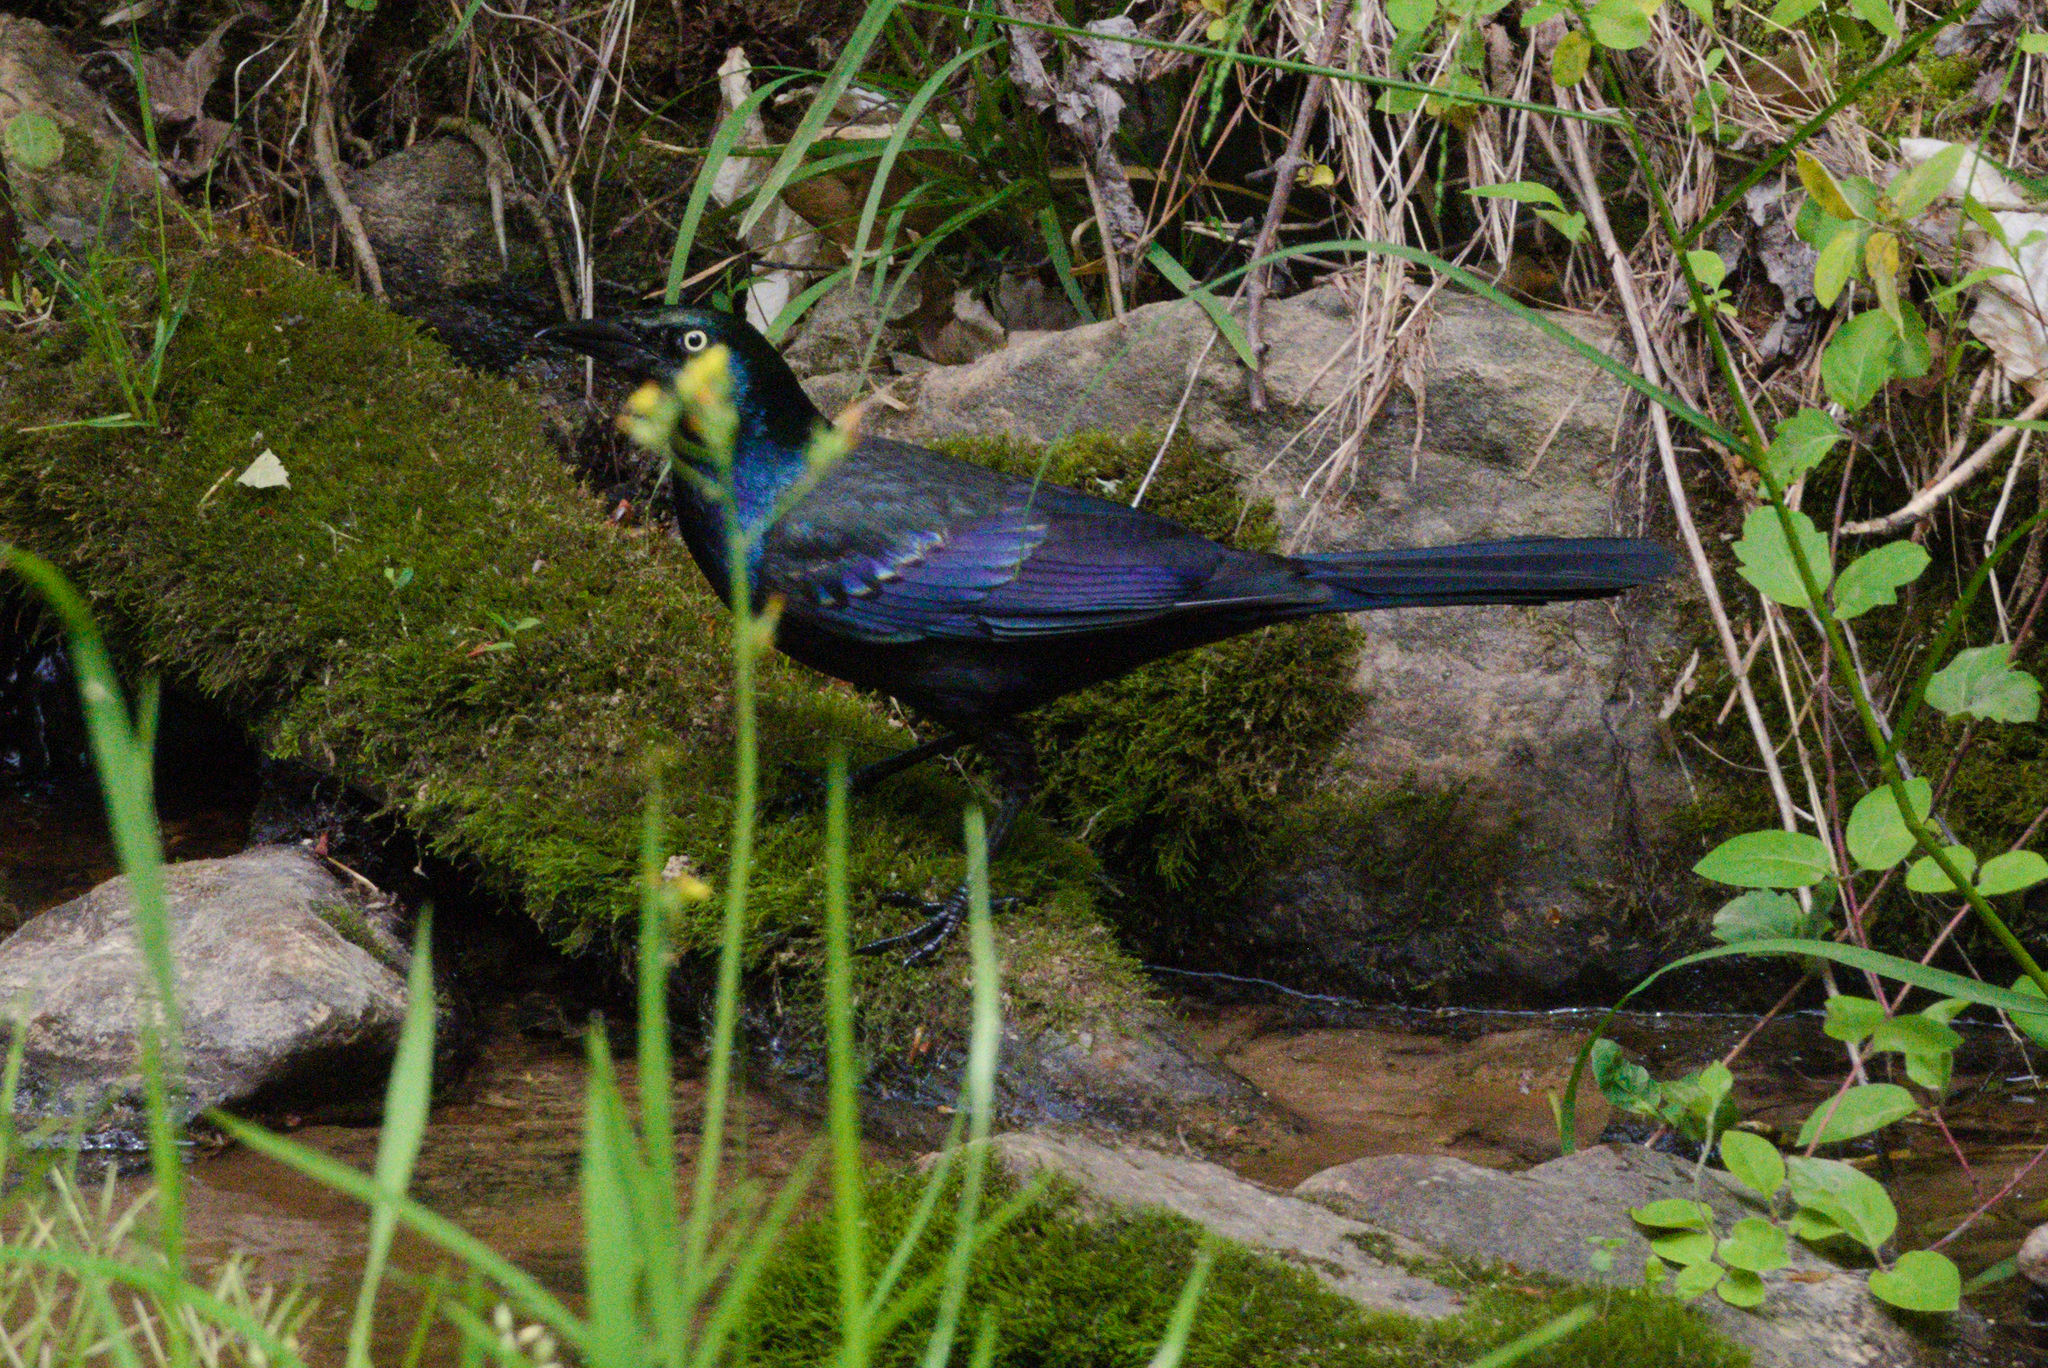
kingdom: Animalia
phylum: Chordata
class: Aves
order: Passeriformes
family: Icteridae
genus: Quiscalus
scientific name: Quiscalus quiscula
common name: Common grackle
